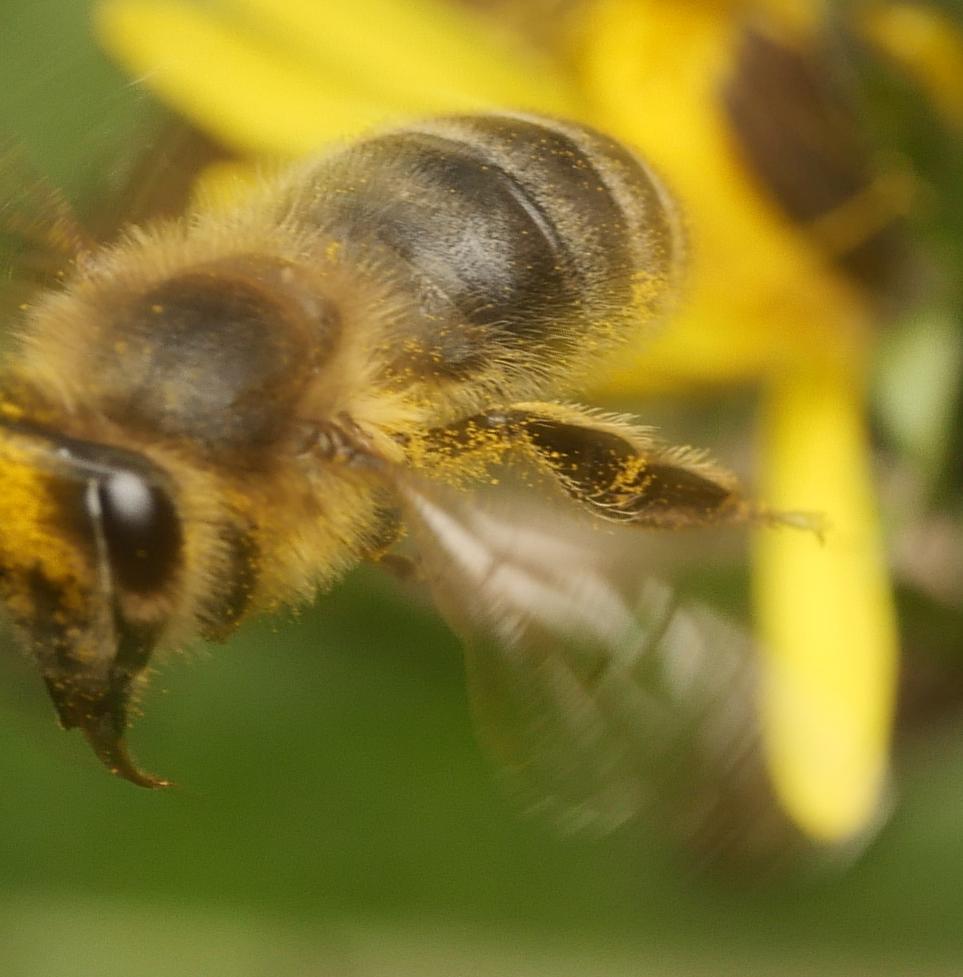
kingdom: Animalia
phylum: Arthropoda
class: Insecta
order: Hymenoptera
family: Apidae
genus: Apis
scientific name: Apis mellifera
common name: Honey bee
